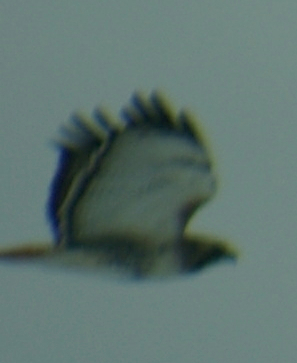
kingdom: Animalia
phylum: Chordata
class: Aves
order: Accipitriformes
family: Accipitridae
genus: Buteo
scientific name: Buteo jamaicensis
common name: Red-tailed hawk
